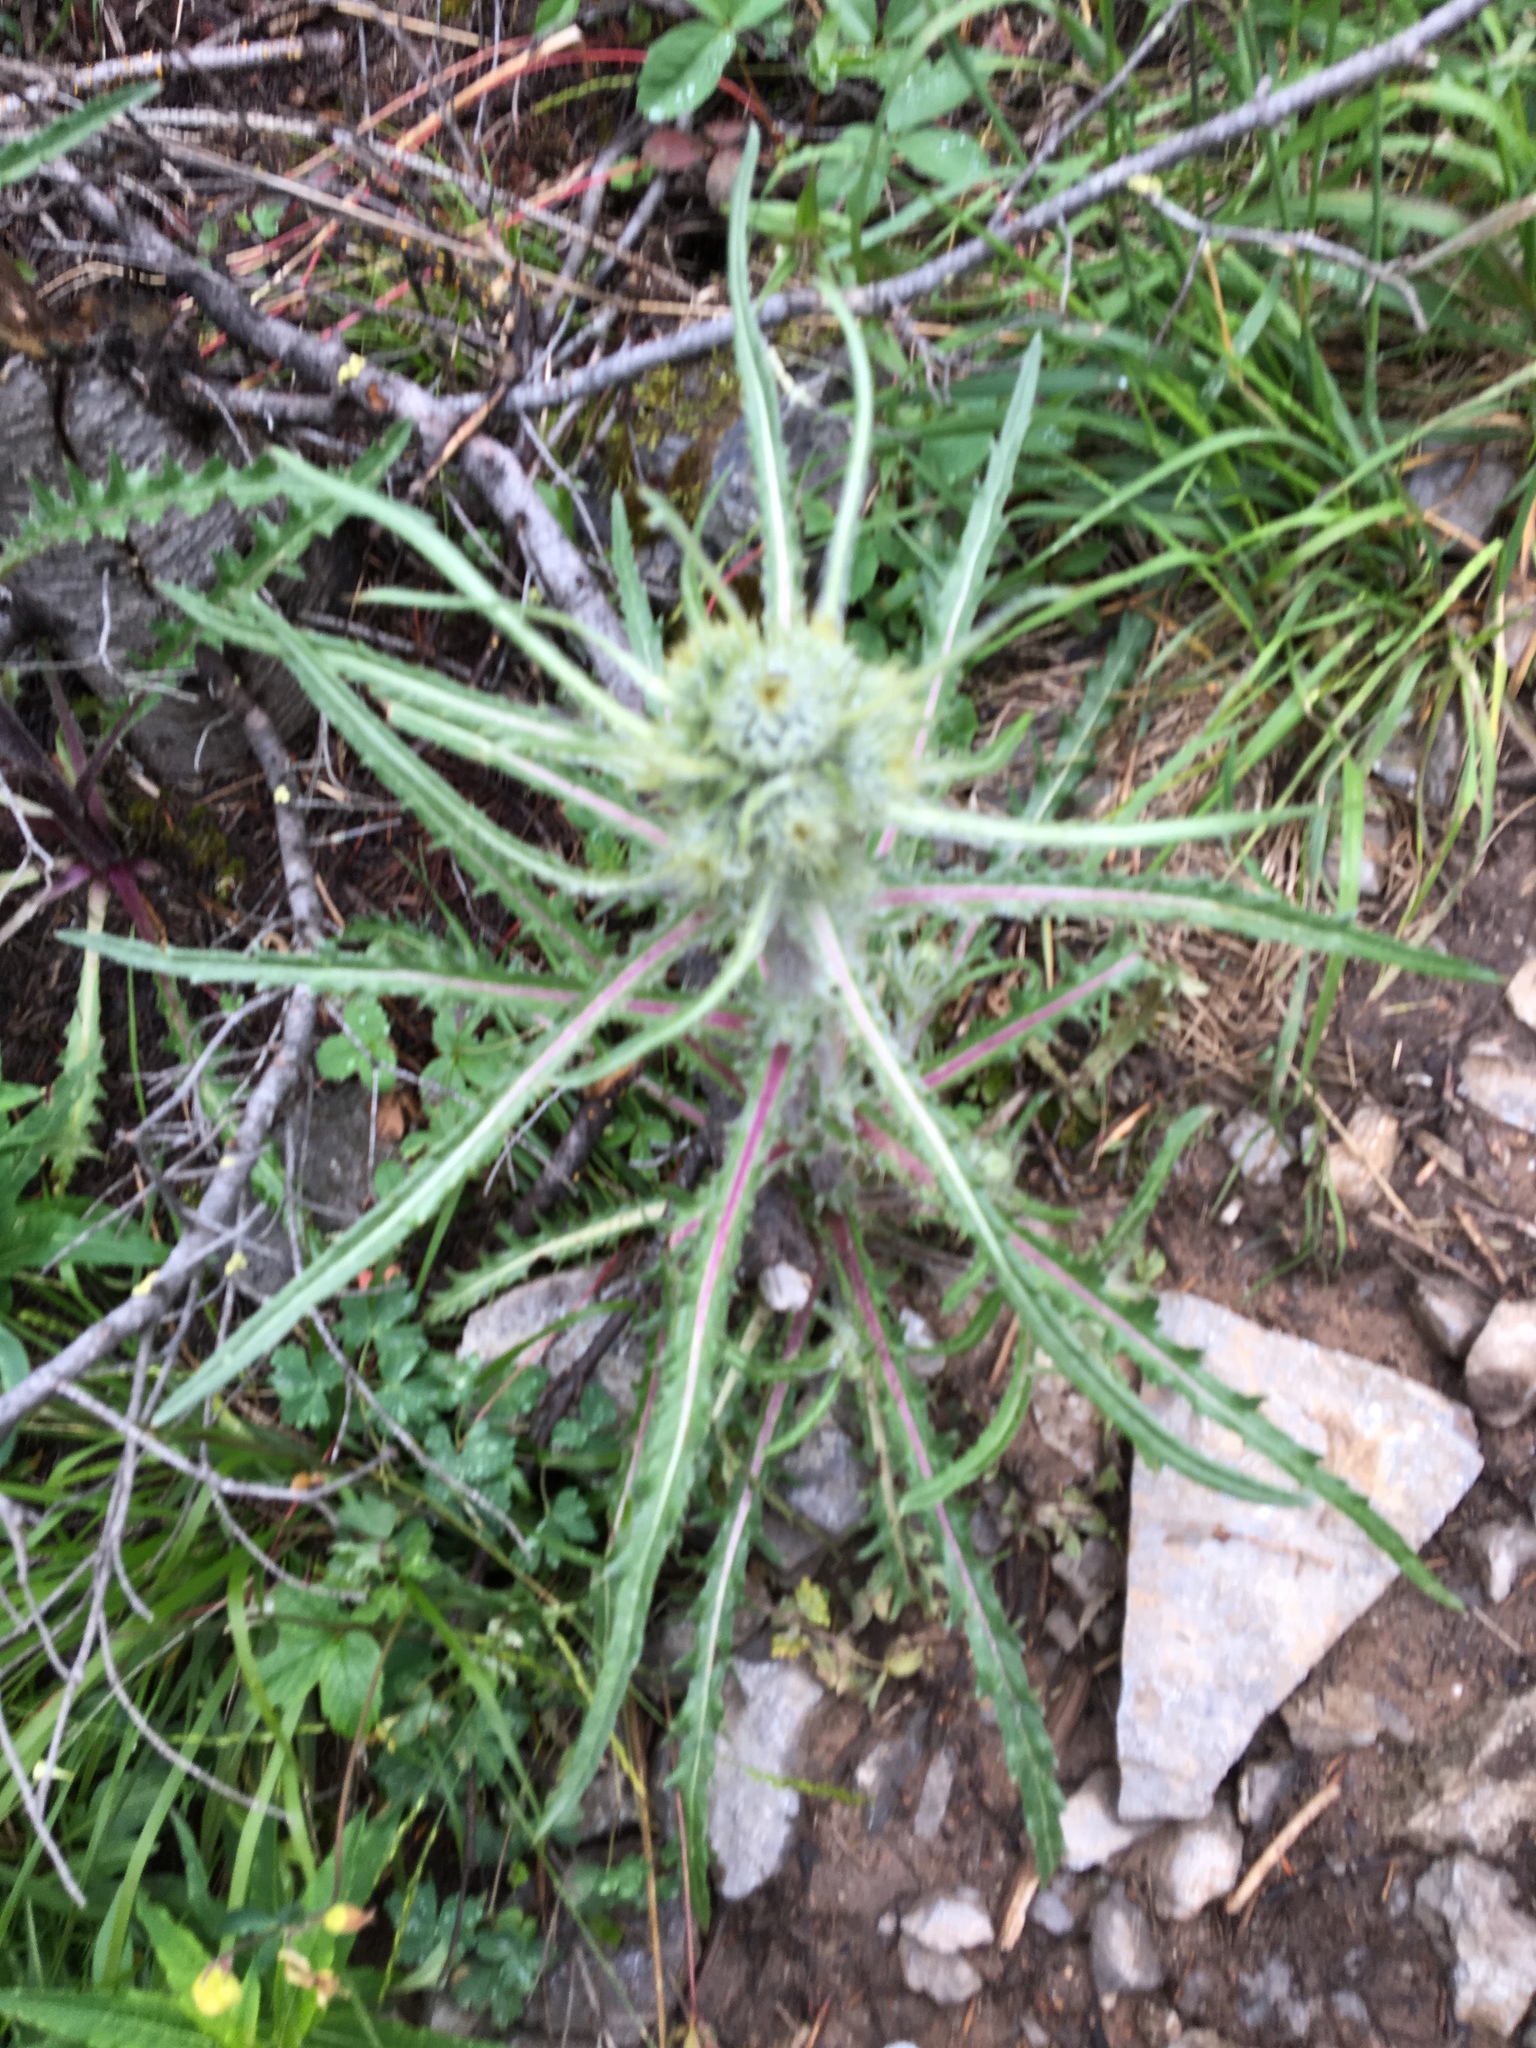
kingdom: Plantae
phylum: Tracheophyta
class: Magnoliopsida
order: Asterales
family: Asteraceae
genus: Cirsium
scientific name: Cirsium hookerianum
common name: Hooker's thistle
